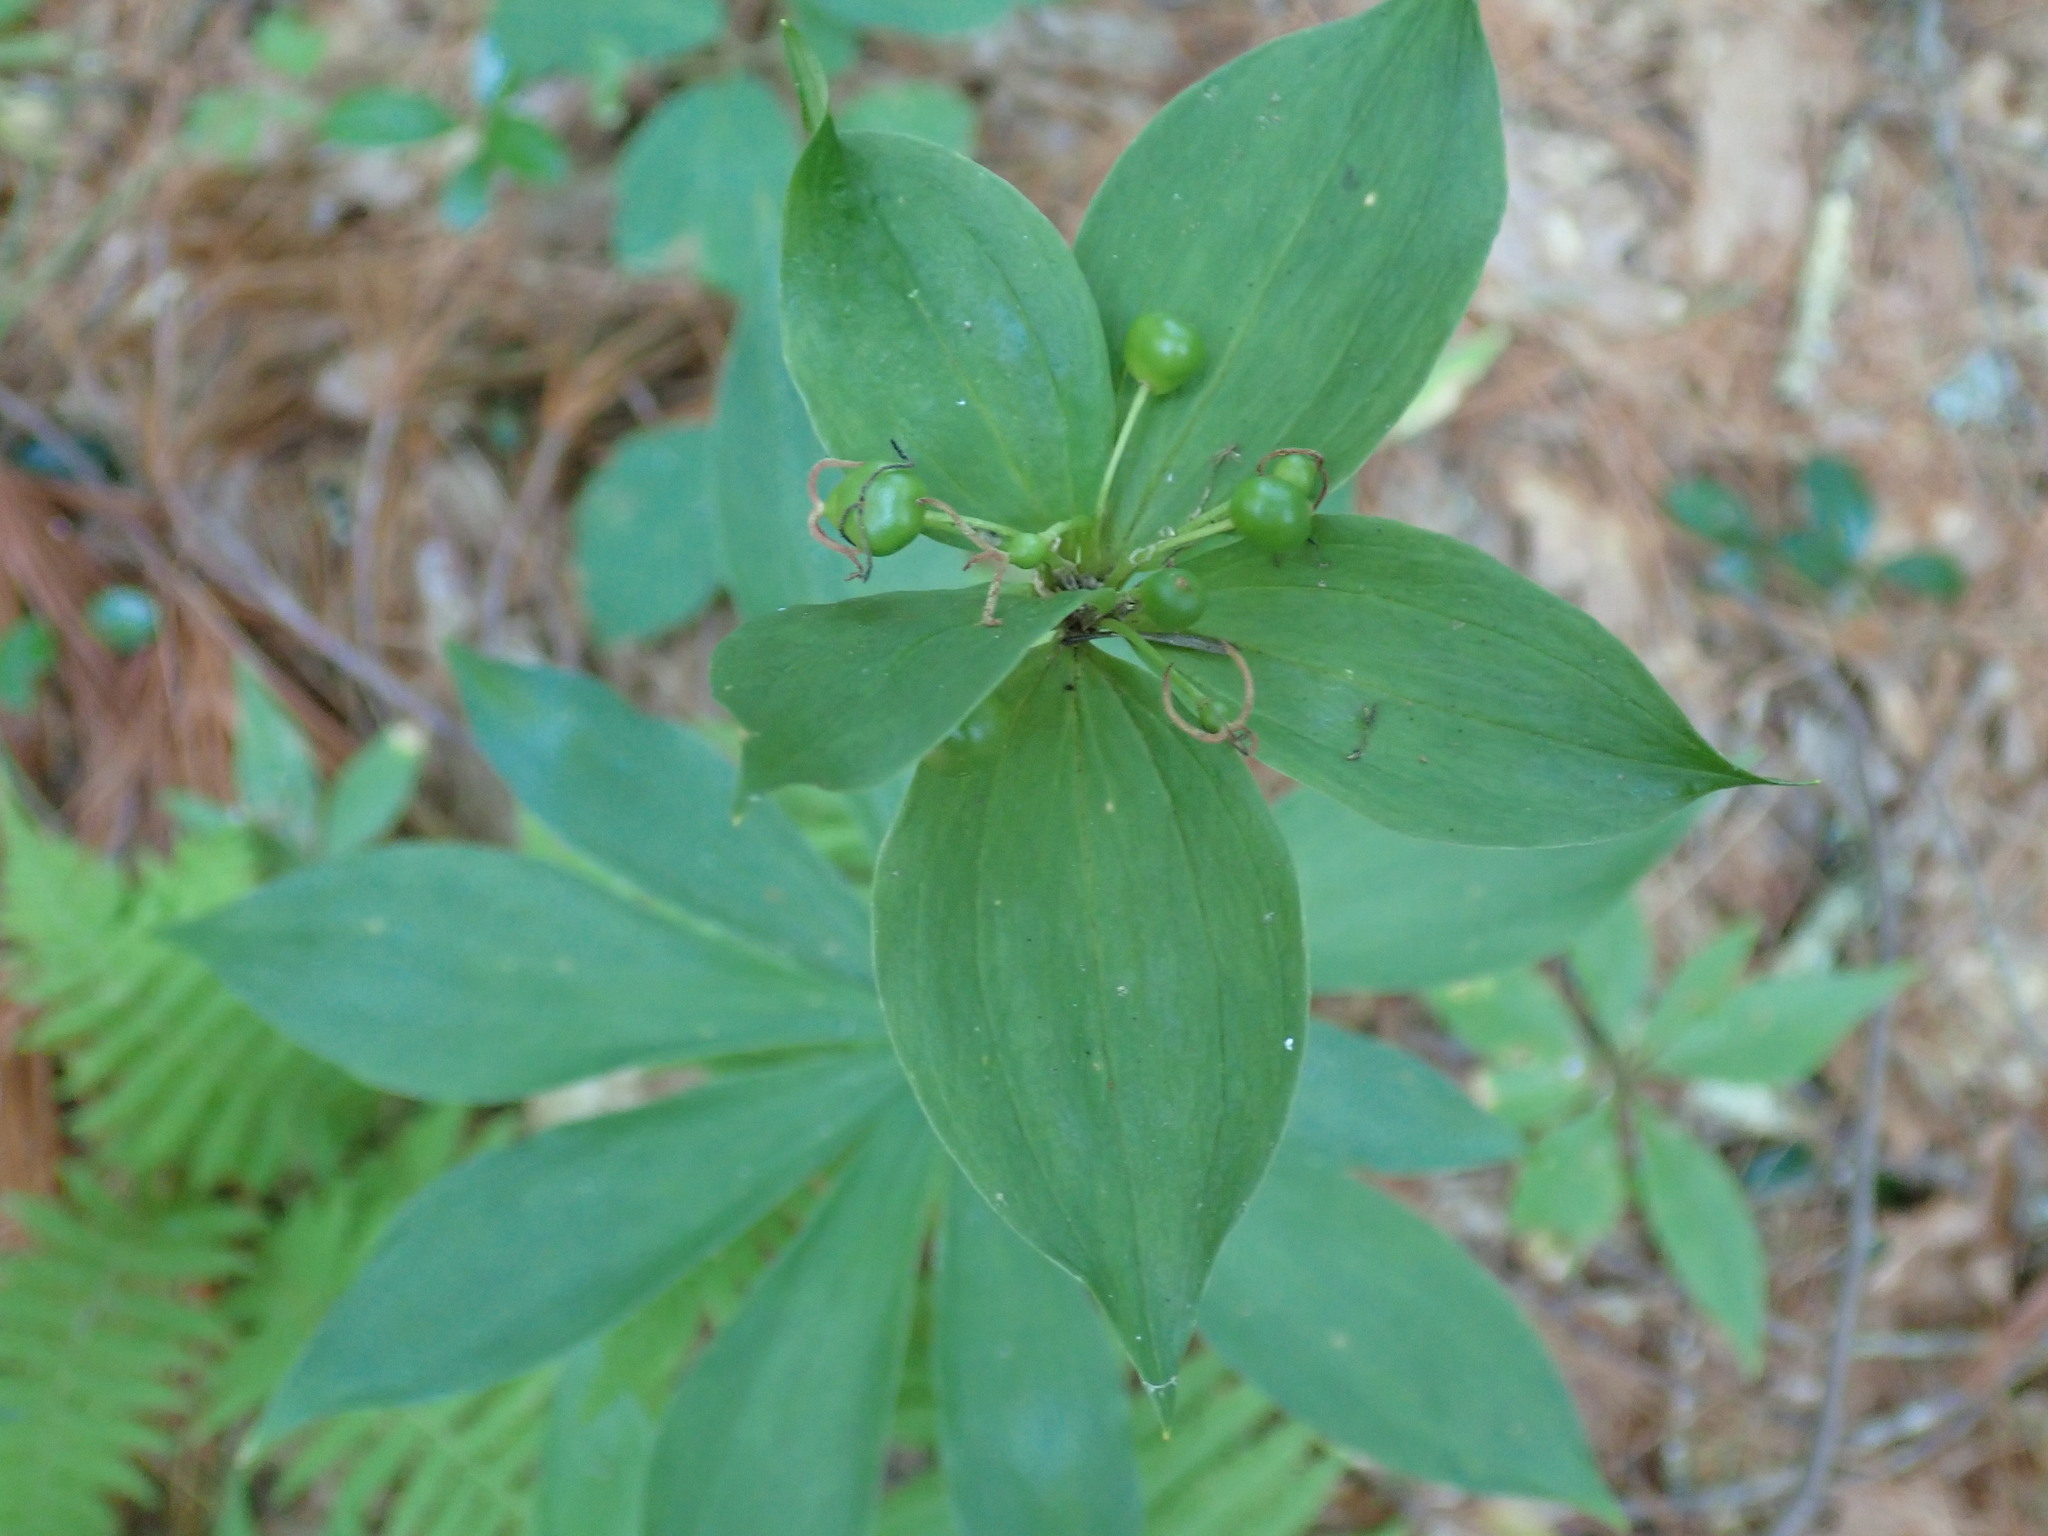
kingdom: Plantae
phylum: Tracheophyta
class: Liliopsida
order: Liliales
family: Liliaceae
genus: Medeola
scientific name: Medeola virginiana
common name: Indian cucumber-root
